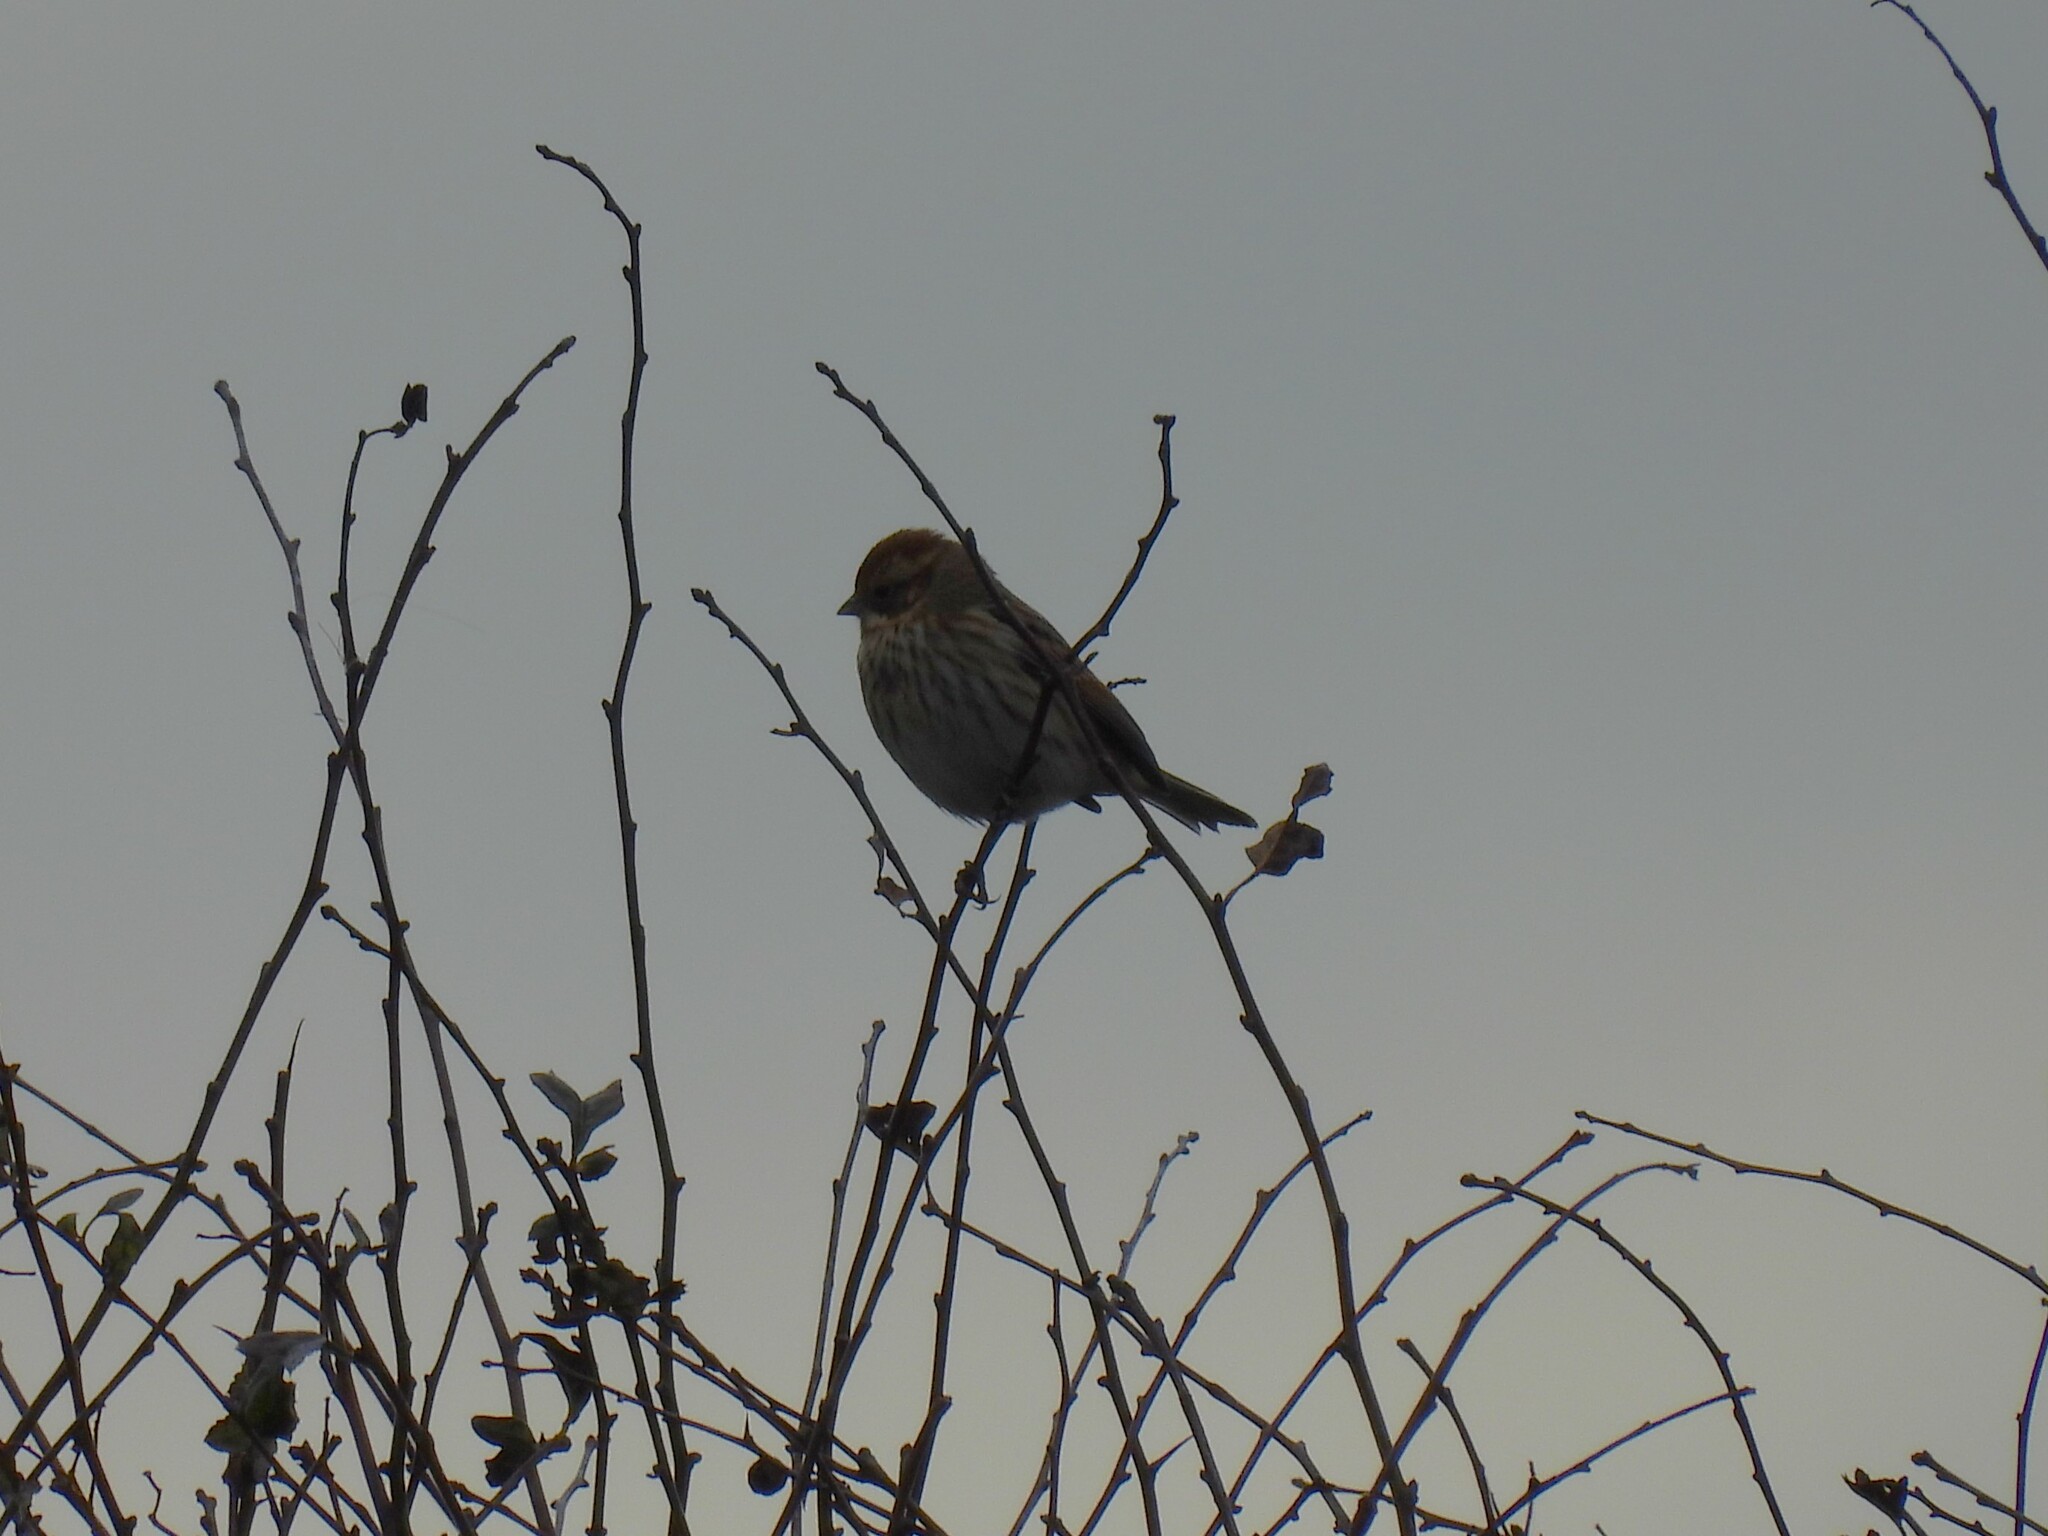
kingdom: Animalia
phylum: Chordata
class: Aves
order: Passeriformes
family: Emberizidae
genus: Emberiza
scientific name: Emberiza schoeniclus
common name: Reed bunting
